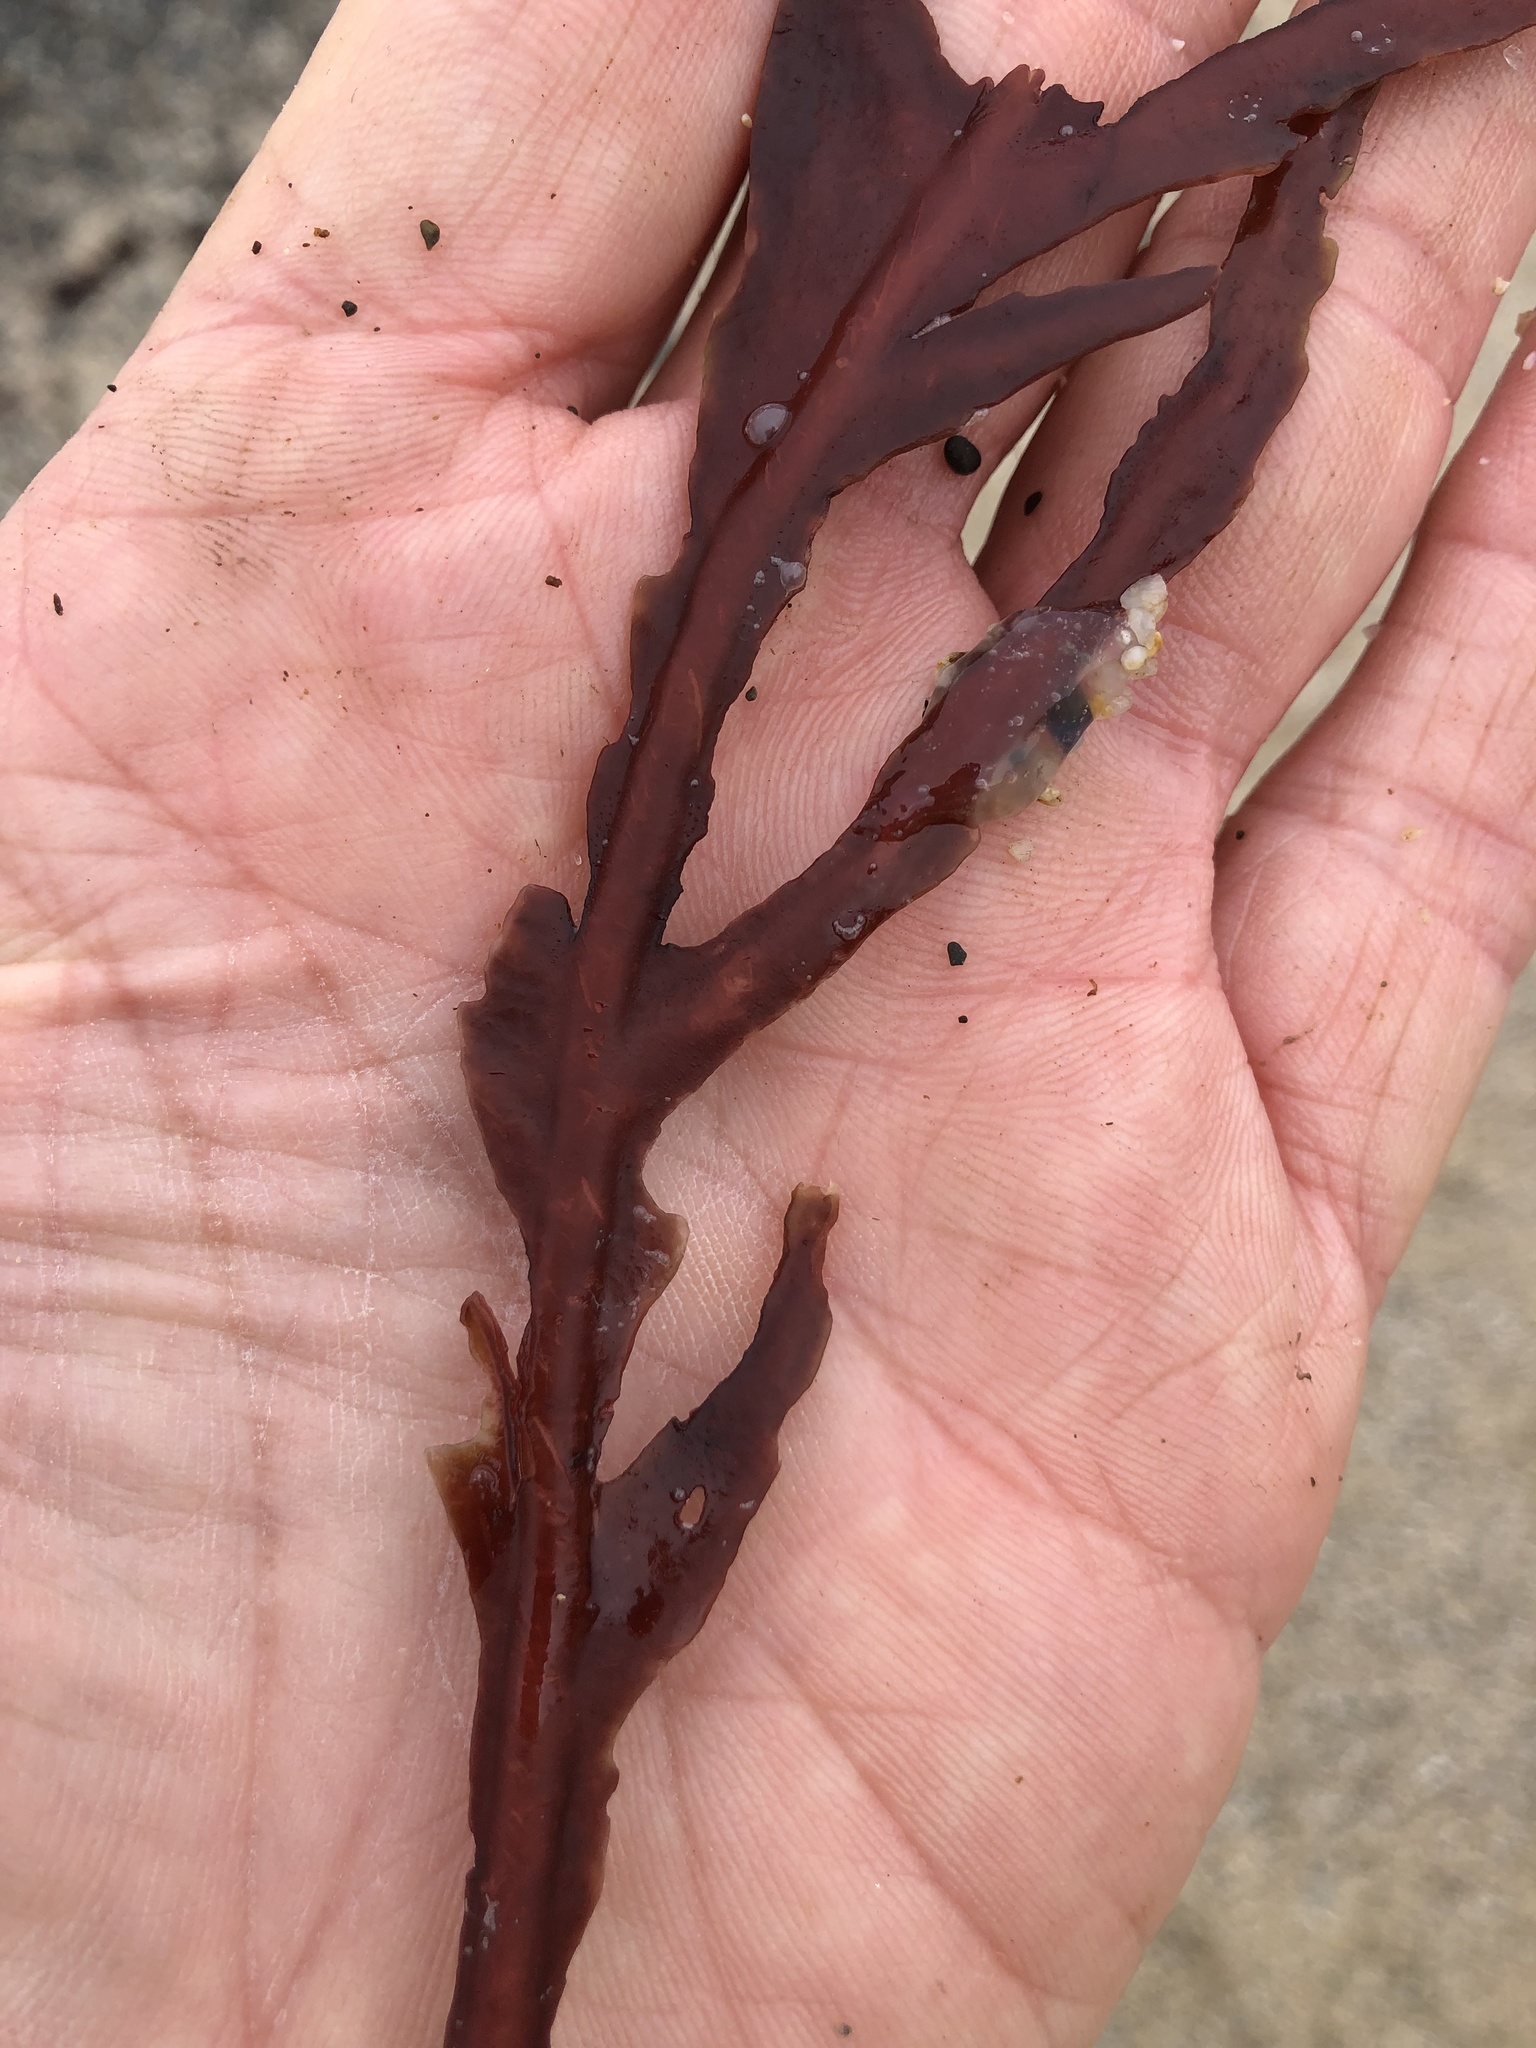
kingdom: Plantae
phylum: Rhodophyta
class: Florideophyceae
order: Gigartinales
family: Kallymeniaceae
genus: Erythrophyllum
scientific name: Erythrophyllum delesserioides
